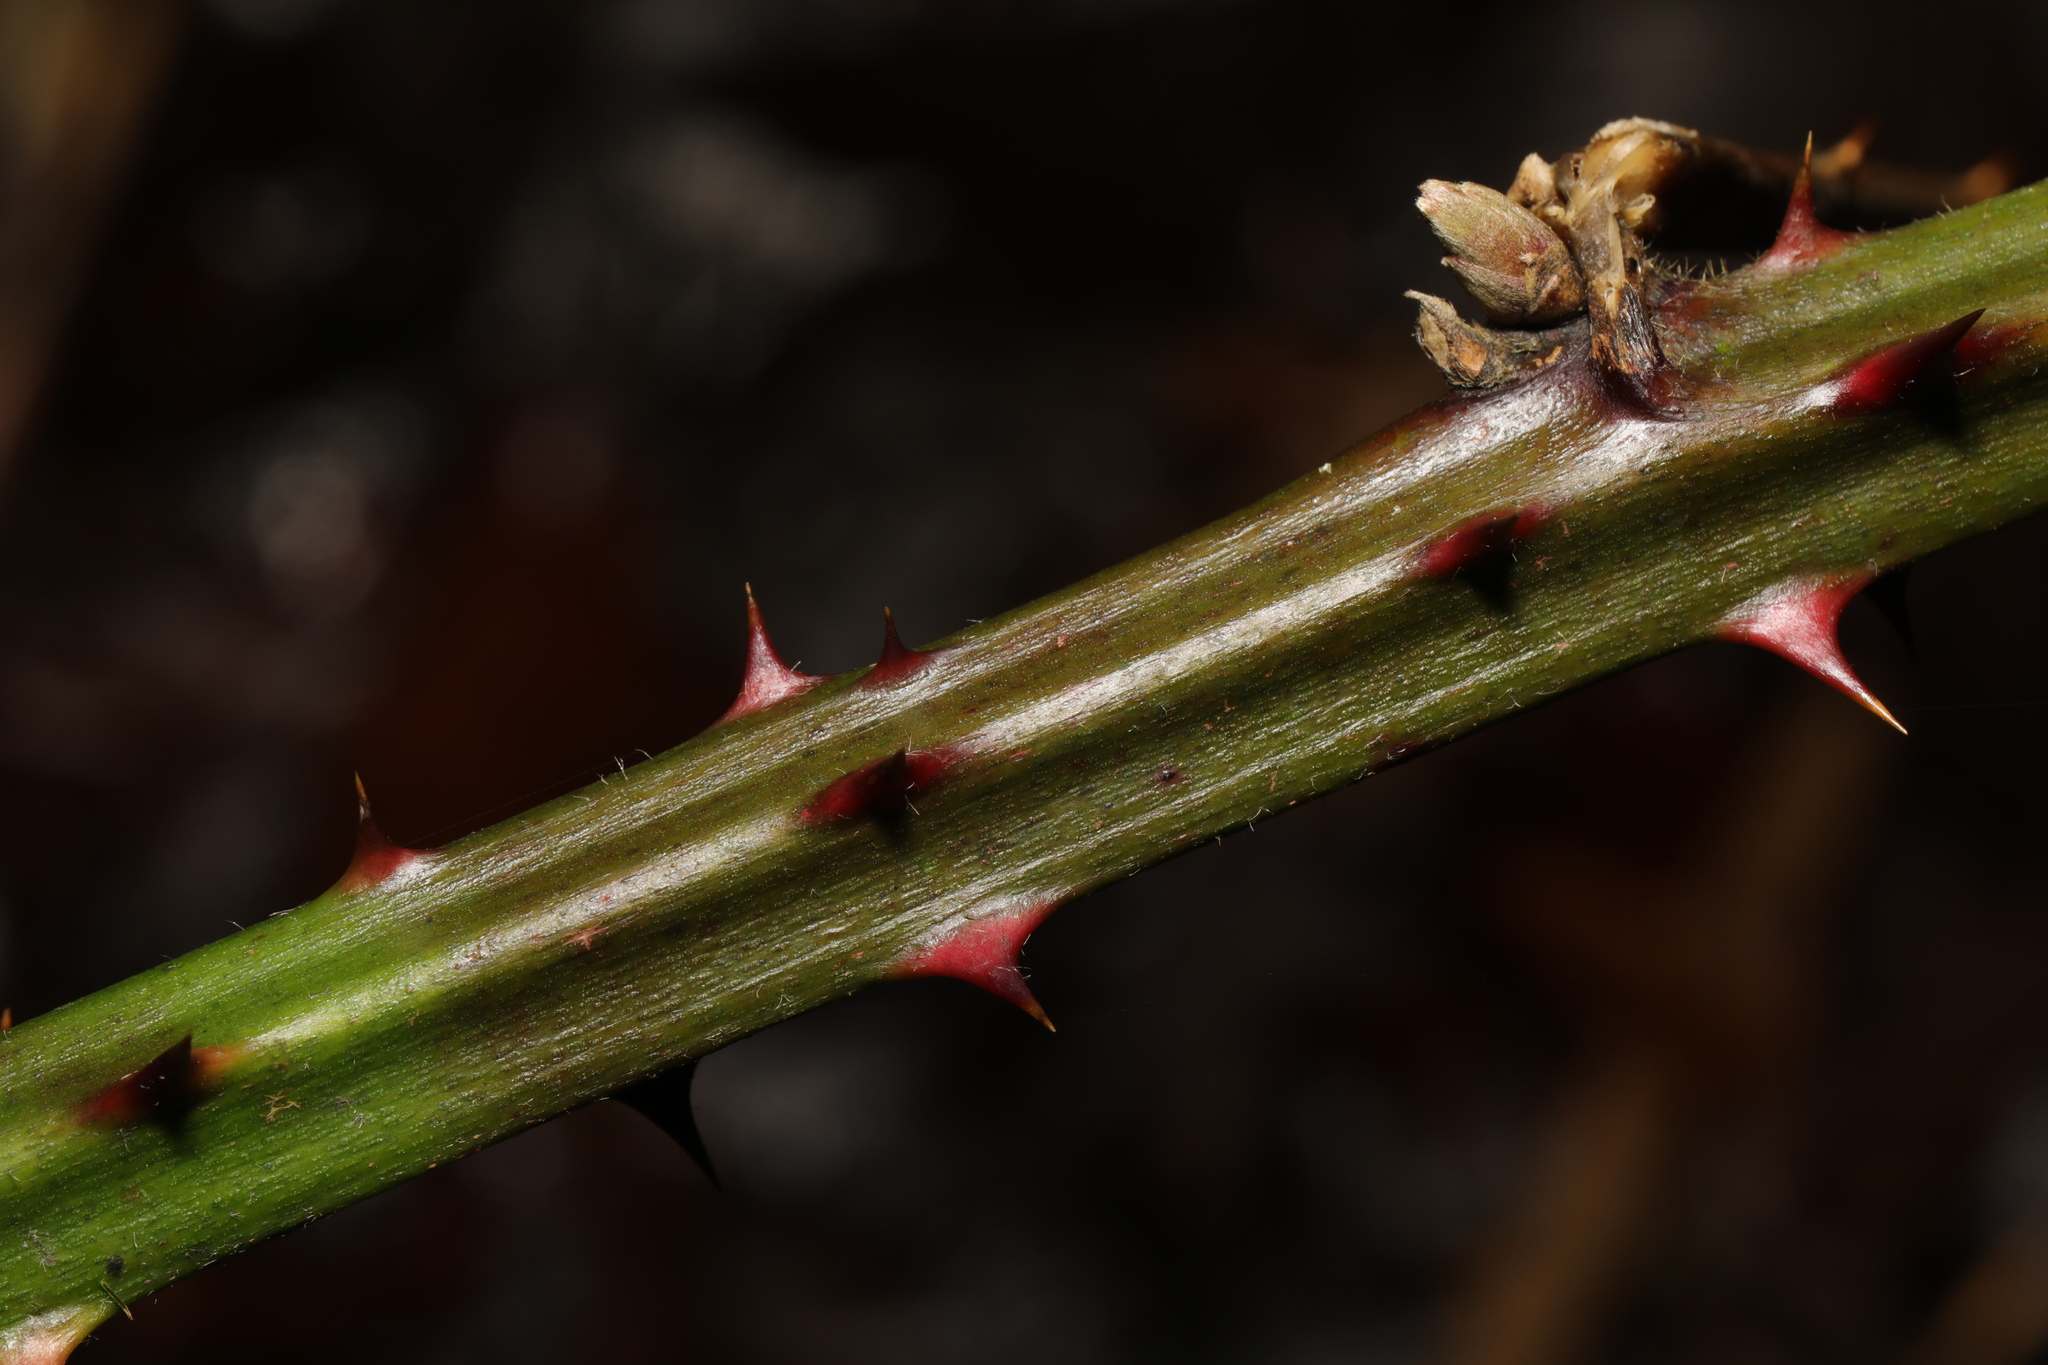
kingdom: Plantae
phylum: Tracheophyta
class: Magnoliopsida
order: Rosales
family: Rosaceae
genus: Rubus
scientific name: Rubus armeniacus
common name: Himalayan blackberry
